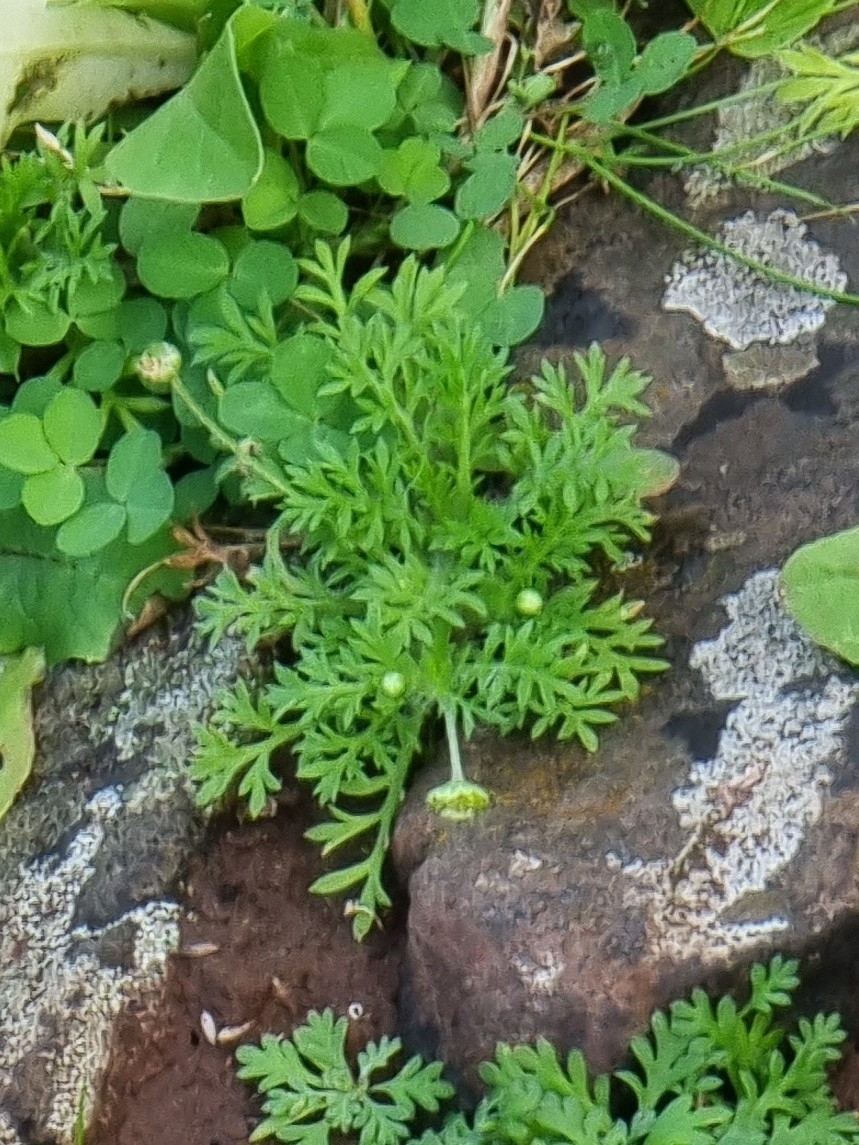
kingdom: Plantae
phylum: Tracheophyta
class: Magnoliopsida
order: Asterales
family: Asteraceae
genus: Cotula
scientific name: Cotula australis
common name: Australian waterbuttons
